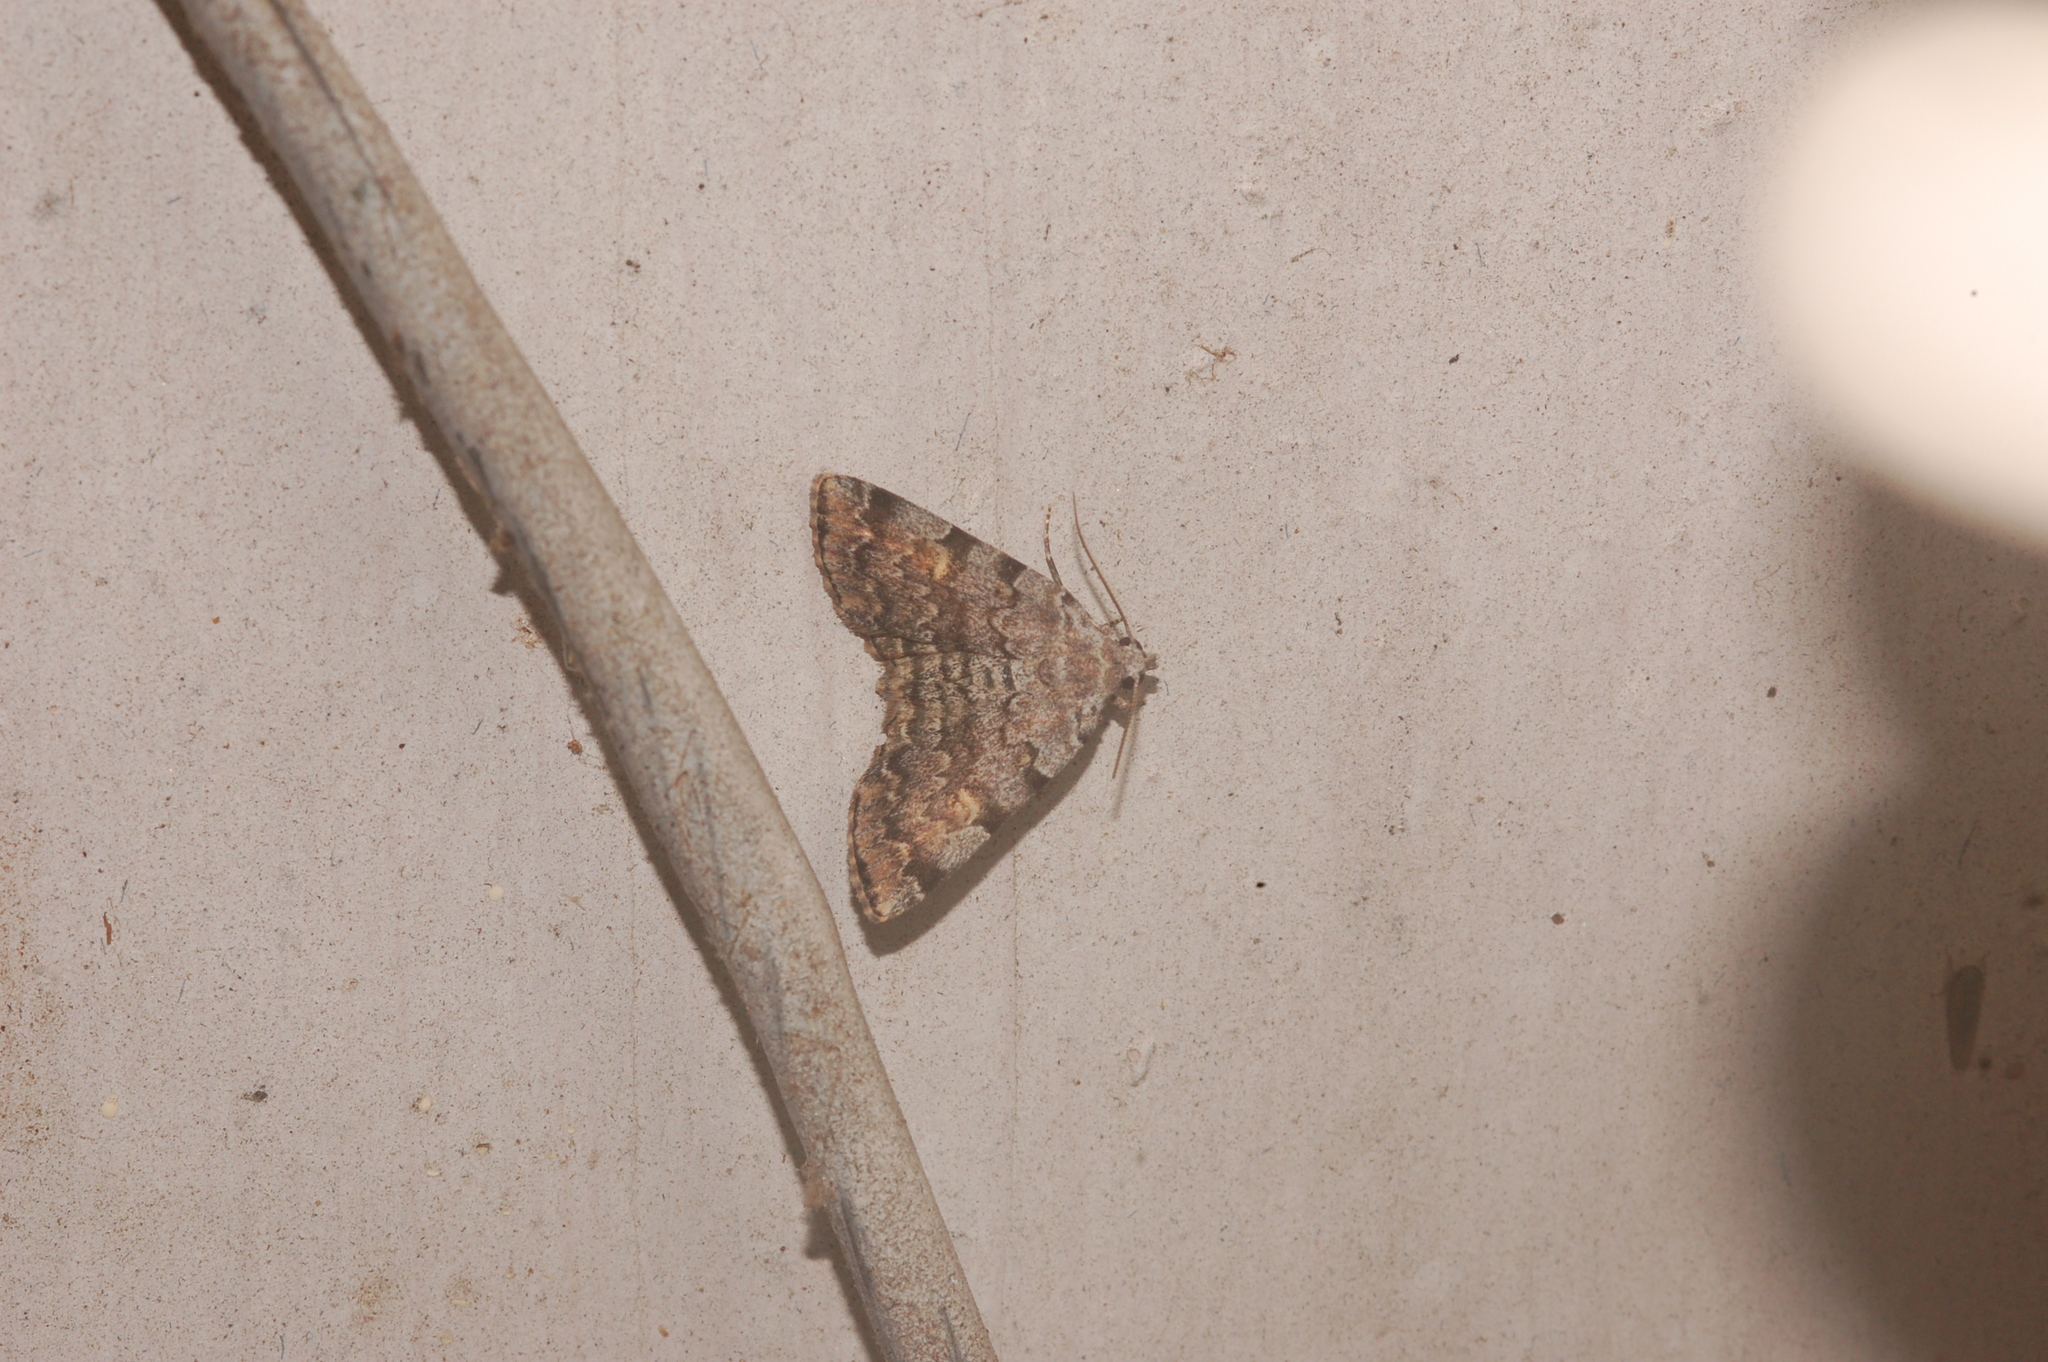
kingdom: Animalia
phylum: Arthropoda
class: Insecta
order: Lepidoptera
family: Erebidae
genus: Idia
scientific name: Idia americalis
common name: American idia moth
